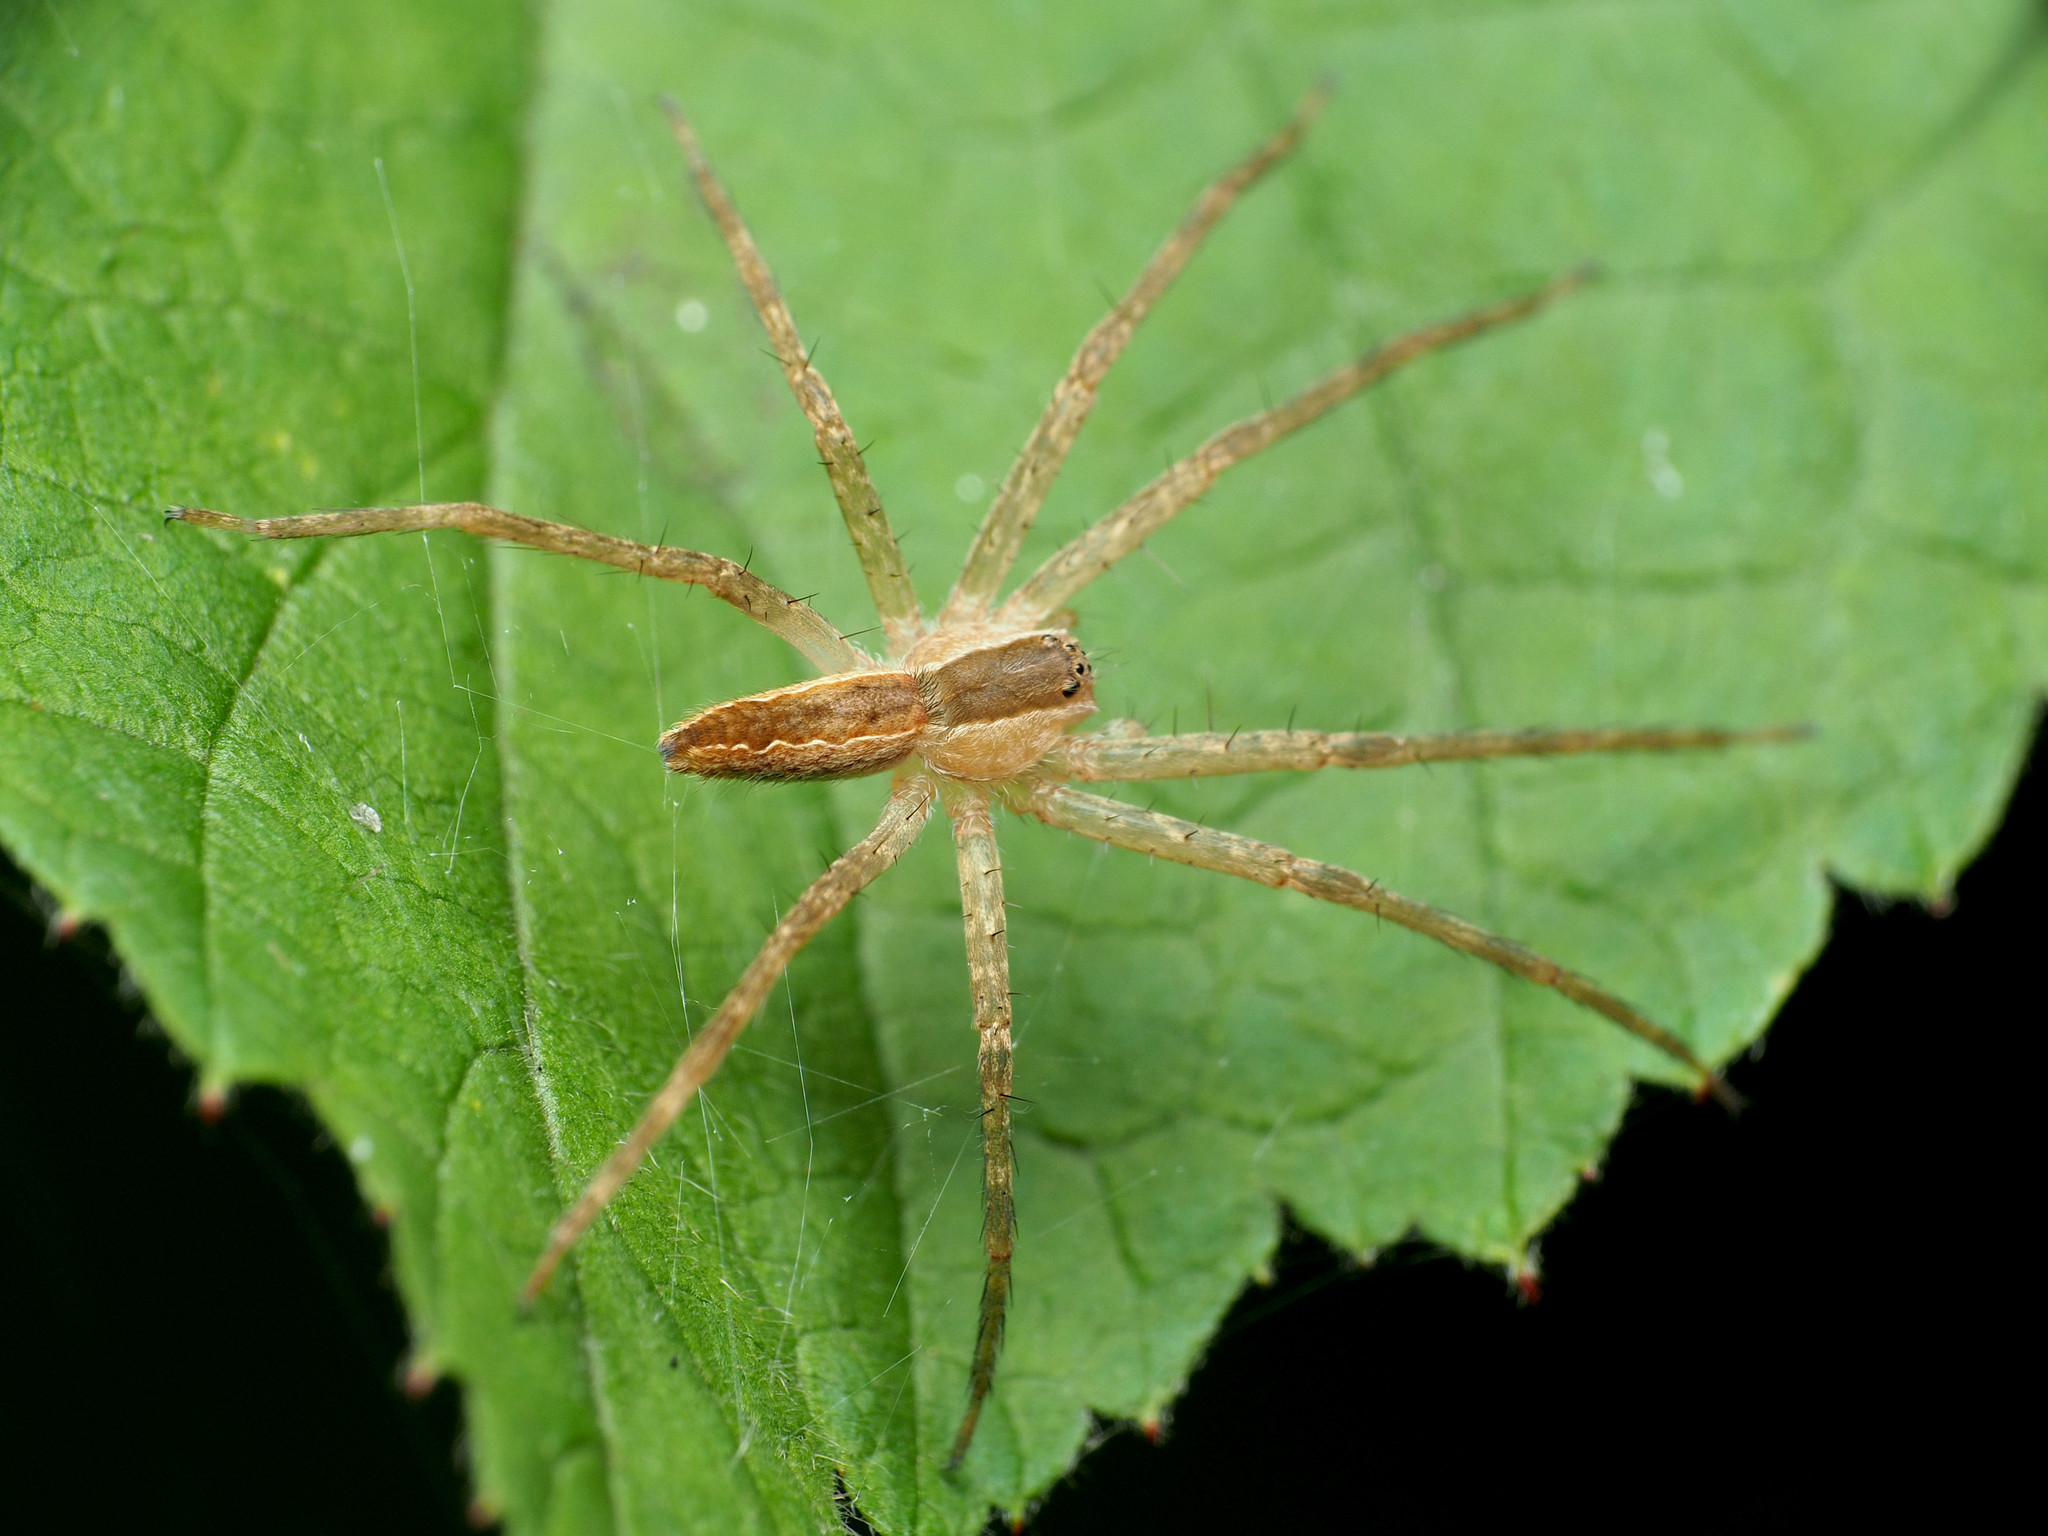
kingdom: Animalia
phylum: Arthropoda
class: Arachnida
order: Araneae
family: Pisauridae
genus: Pisaurina
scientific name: Pisaurina mira
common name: American nursery web spider
